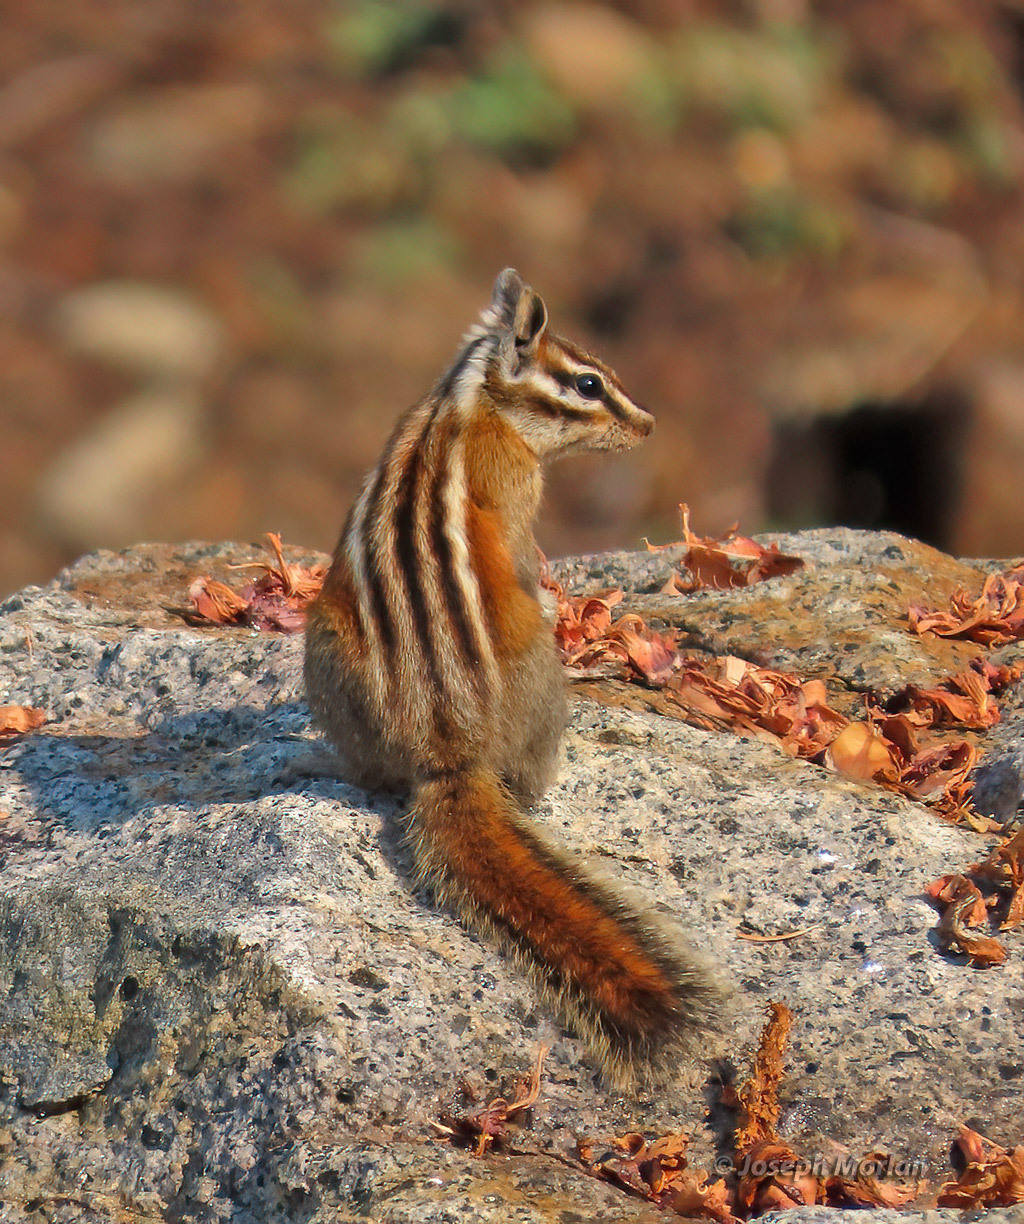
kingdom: Animalia
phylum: Chordata
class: Mammalia
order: Rodentia
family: Sciuridae
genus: Tamias
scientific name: Tamias speciosus
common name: Lodgepole chipmunk
